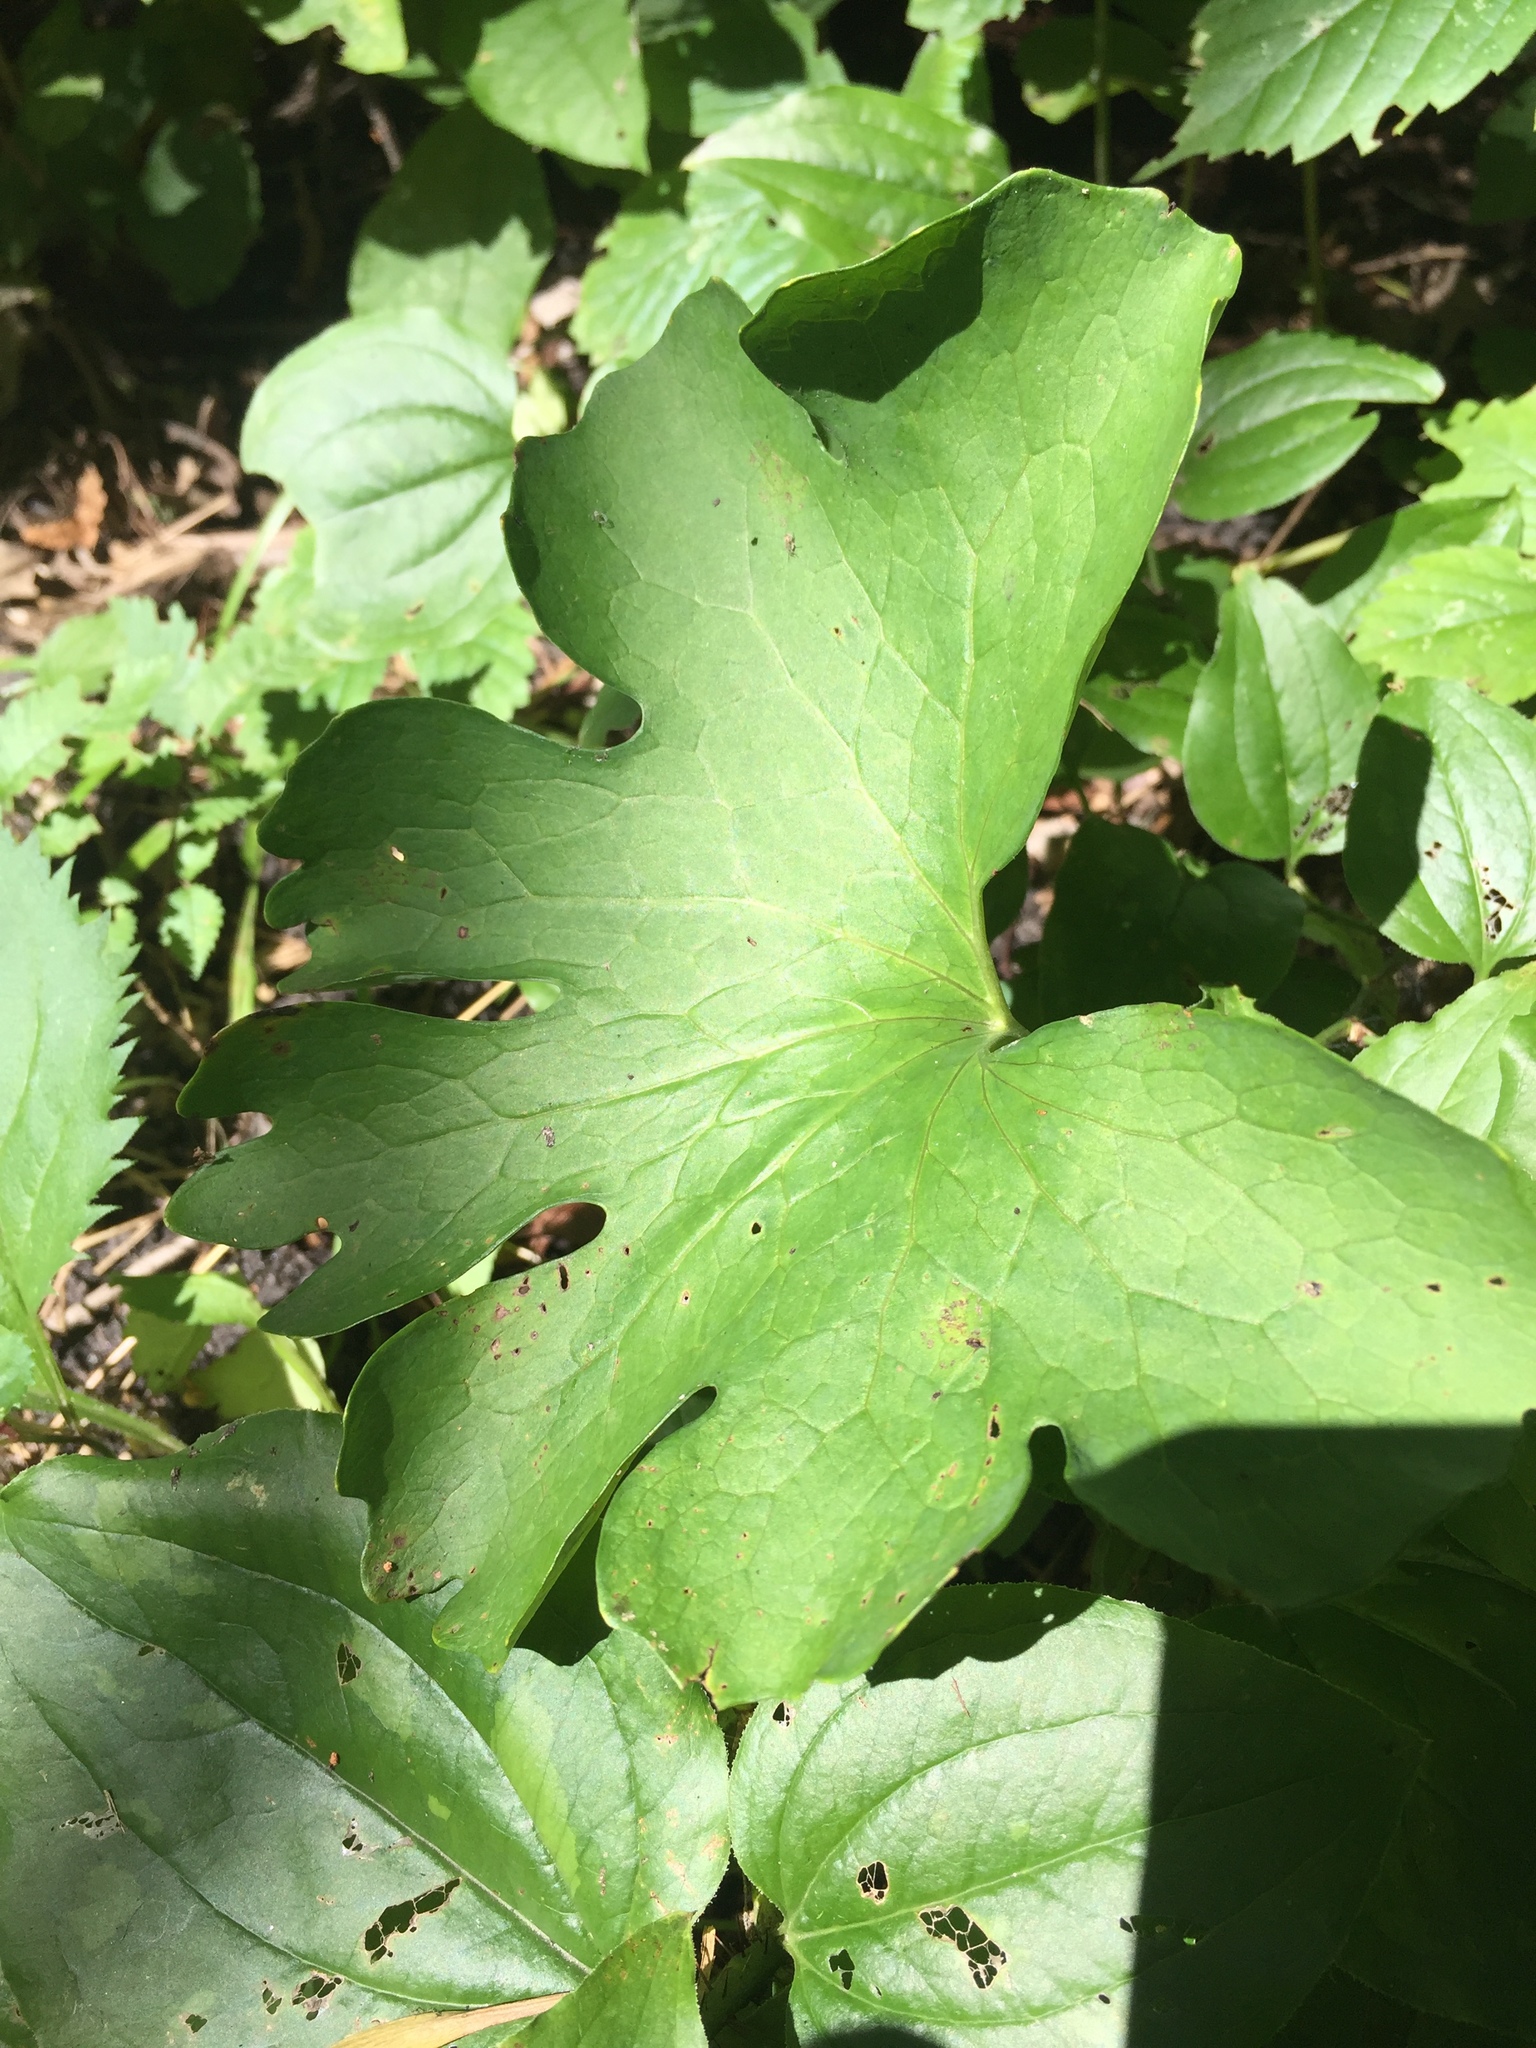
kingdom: Plantae
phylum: Tracheophyta
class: Magnoliopsida
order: Ranunculales
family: Papaveraceae
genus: Sanguinaria
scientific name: Sanguinaria canadensis
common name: Bloodroot
